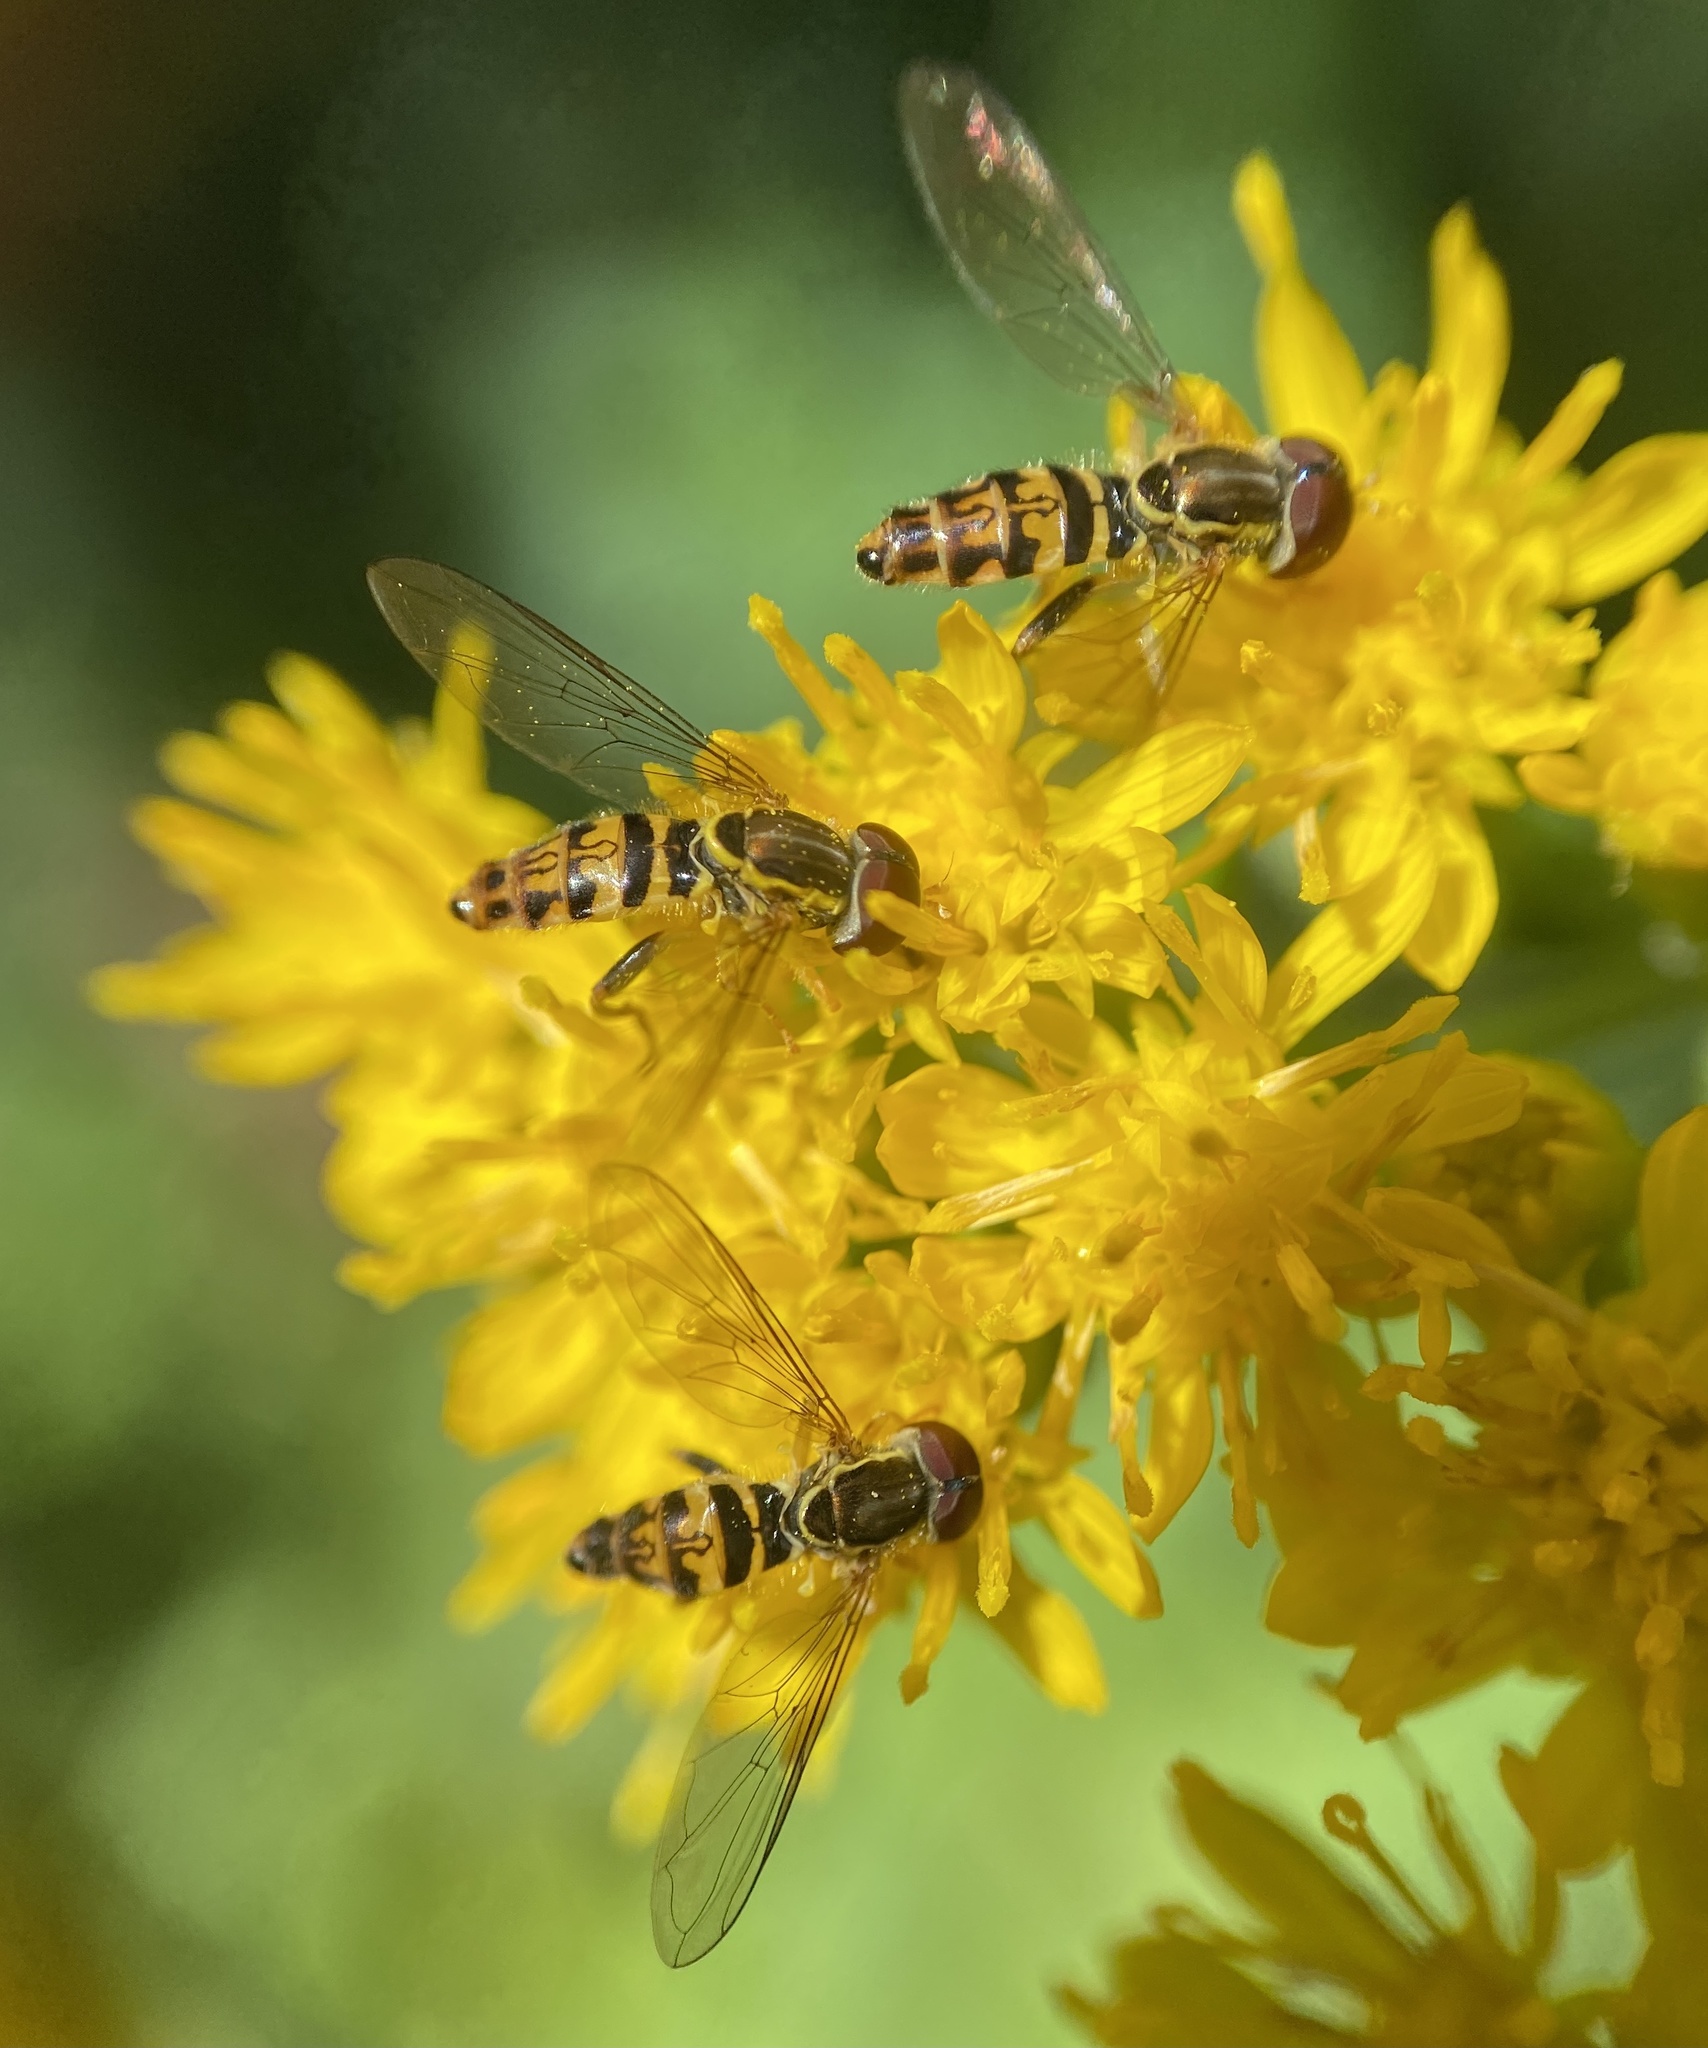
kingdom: Animalia
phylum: Arthropoda
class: Insecta
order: Diptera
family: Syrphidae
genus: Toxomerus
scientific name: Toxomerus geminatus
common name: Eastern calligrapher
